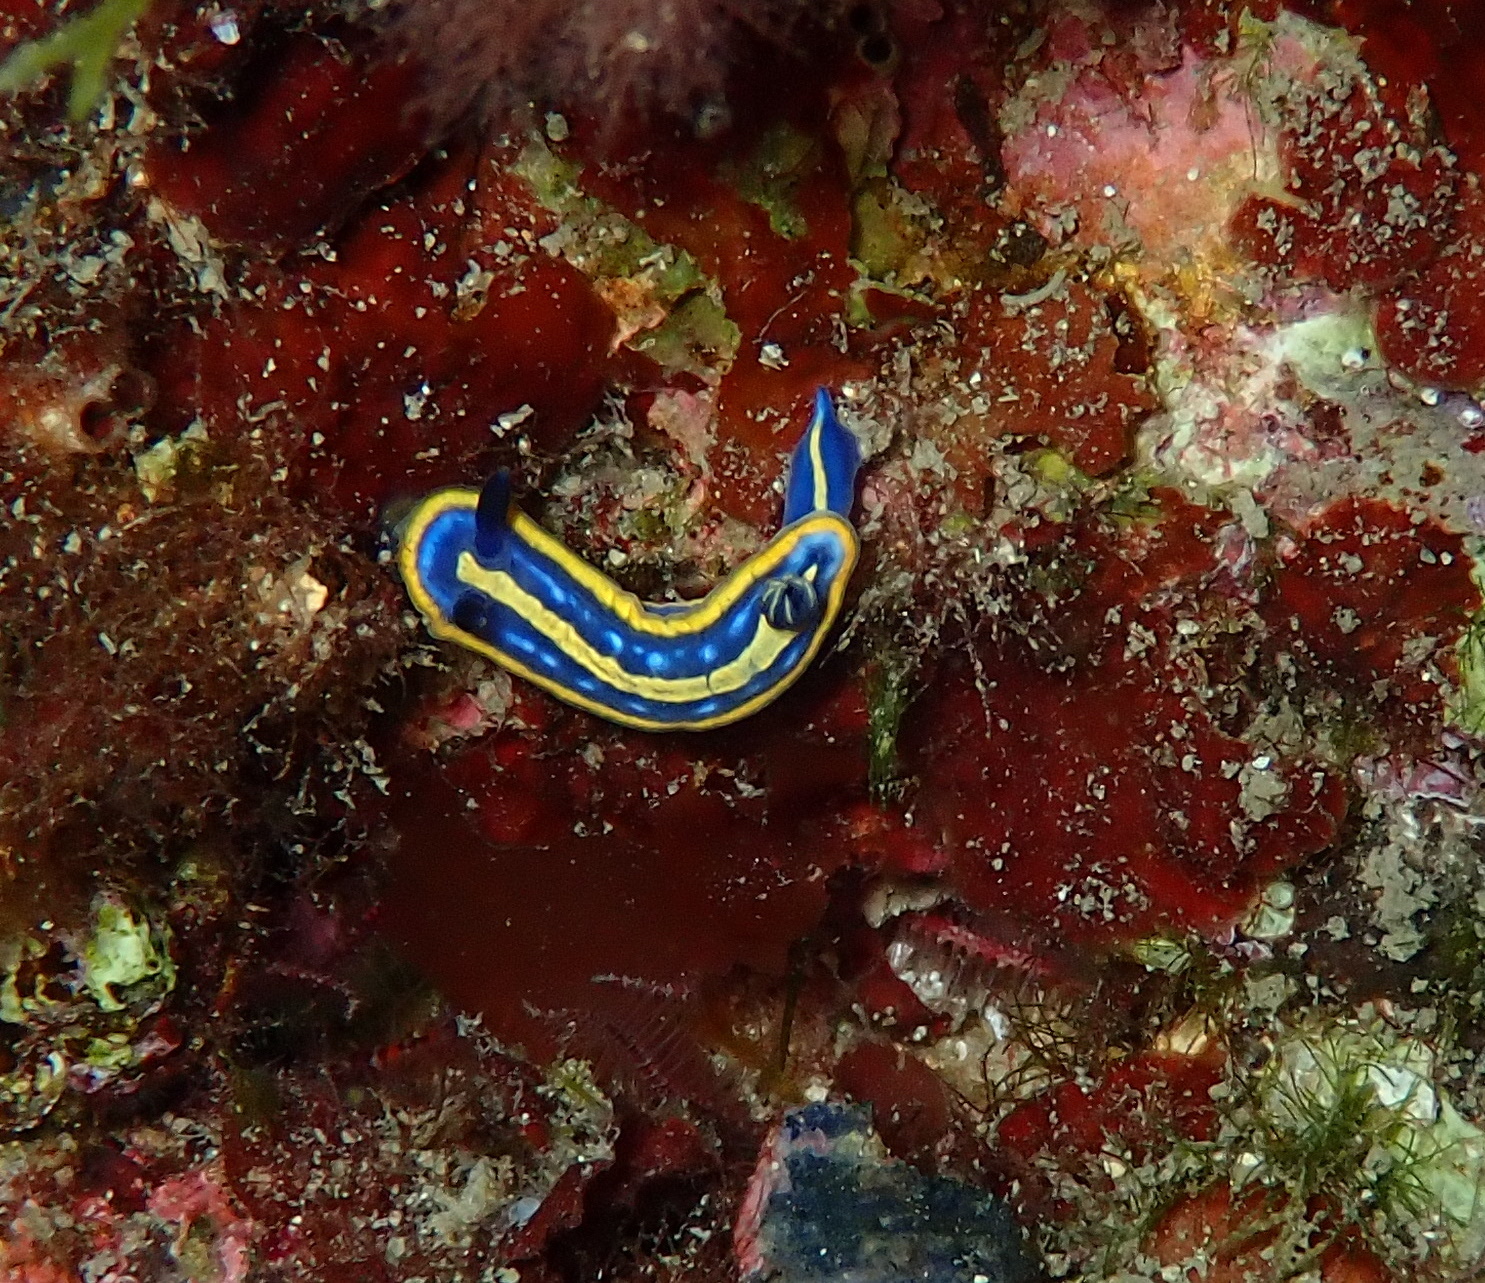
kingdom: Animalia
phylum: Mollusca
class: Gastropoda
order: Nudibranchia
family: Chromodorididae
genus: Felimare
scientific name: Felimare tricolor
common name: Tricolor doris
